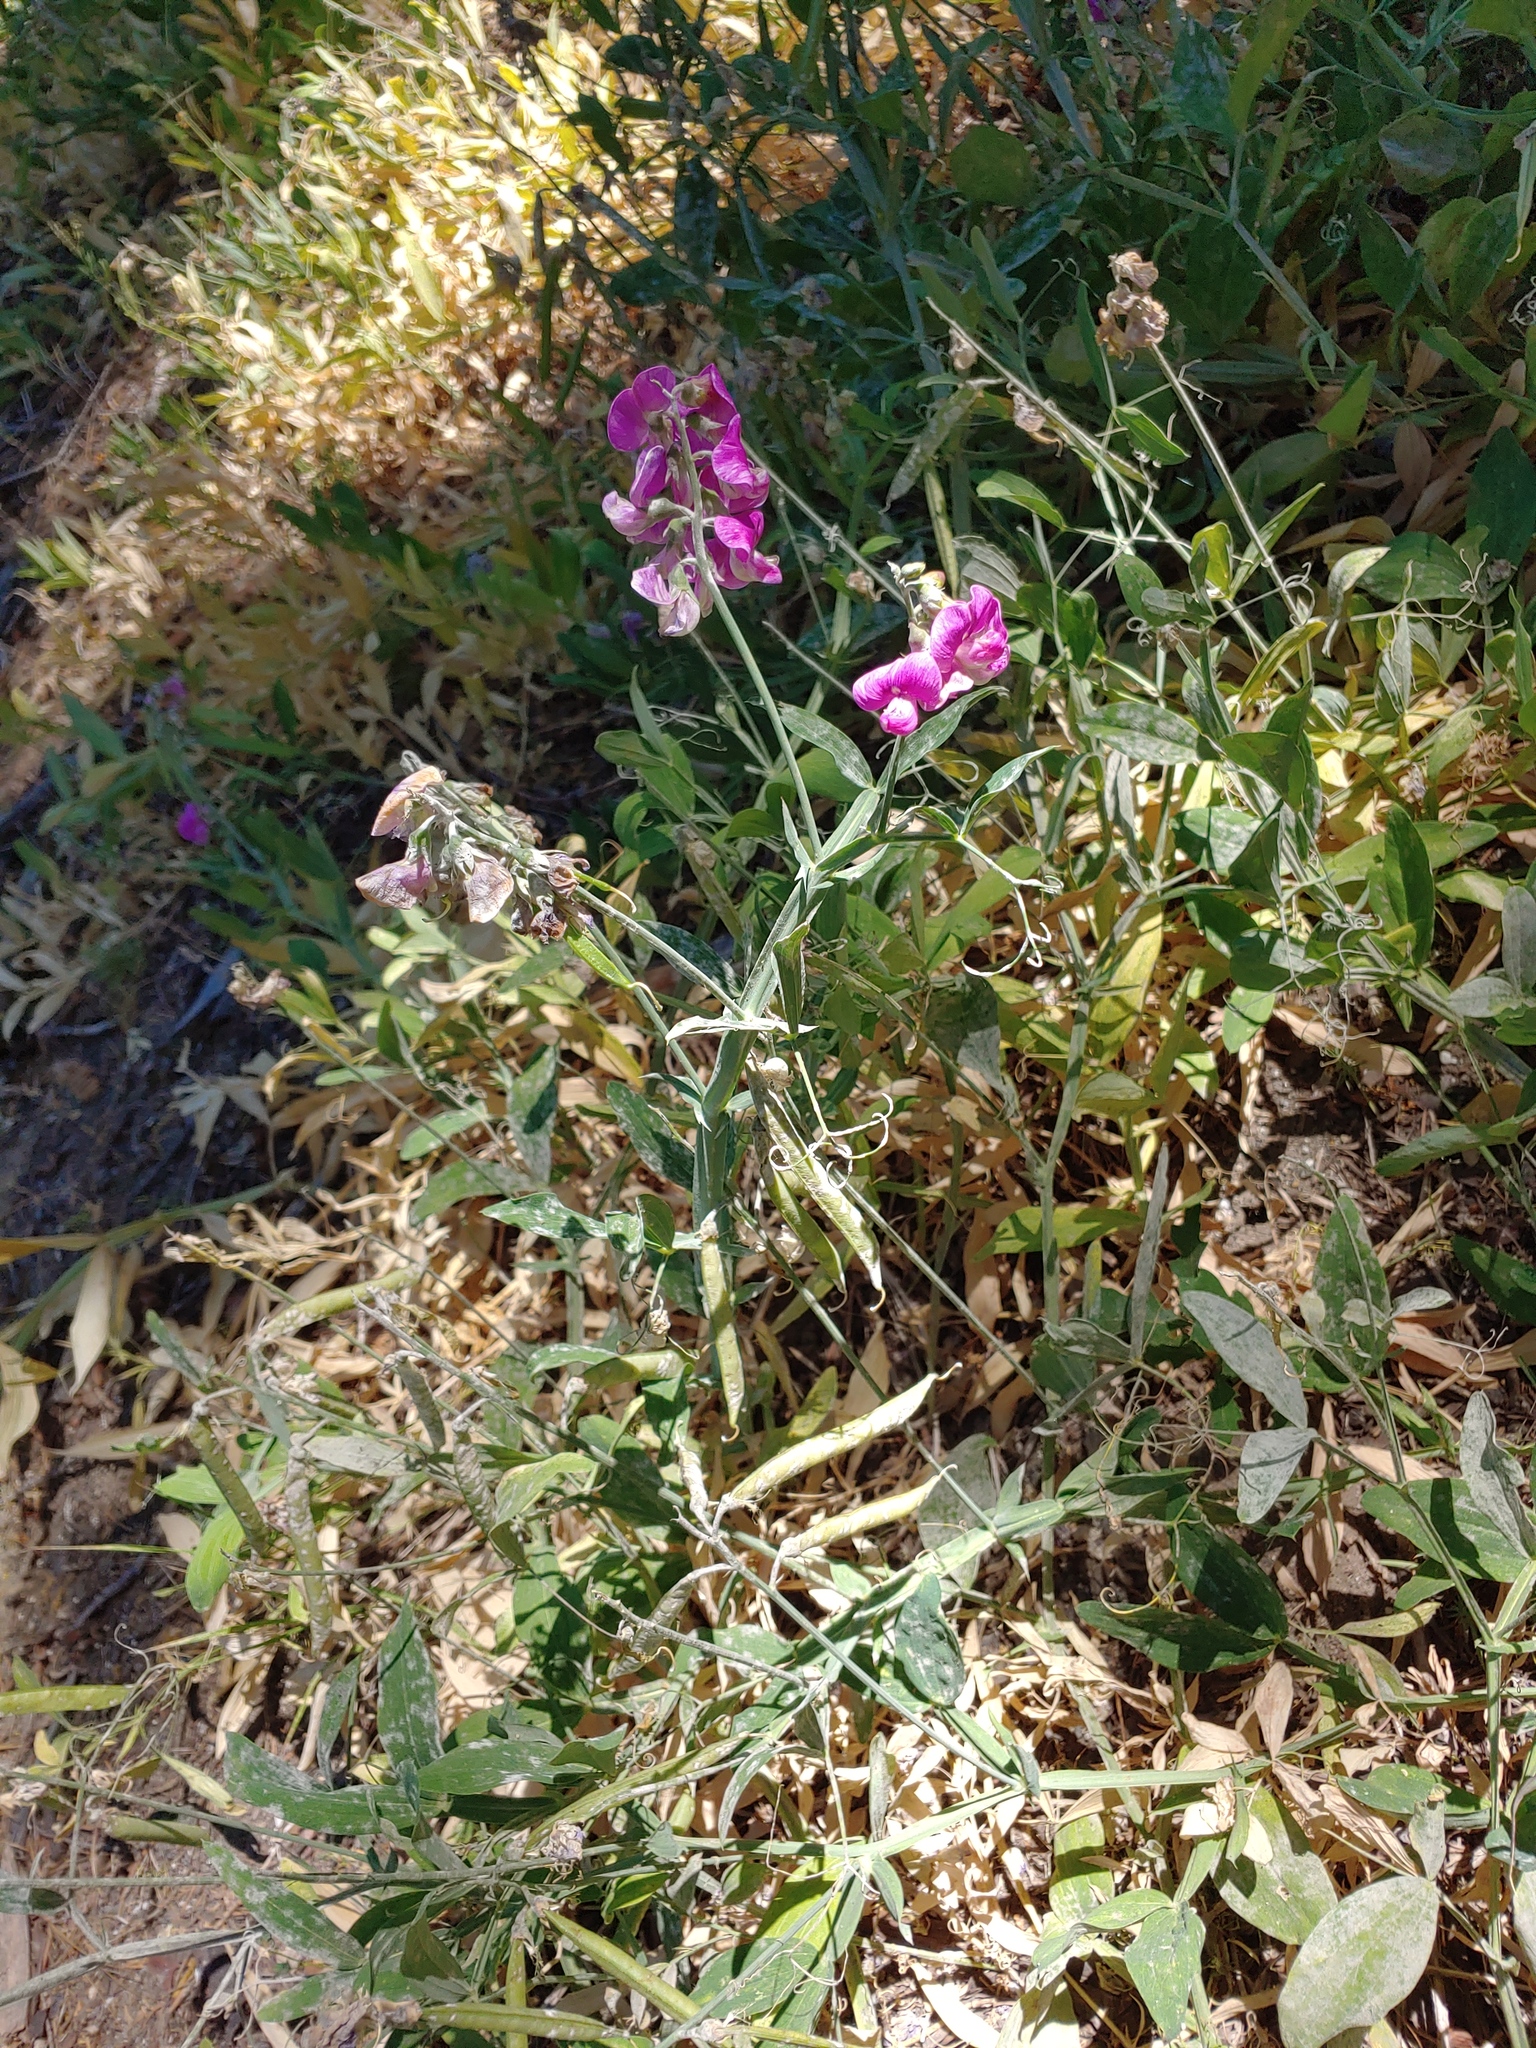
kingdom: Plantae
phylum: Tracheophyta
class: Magnoliopsida
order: Fabales
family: Fabaceae
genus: Lathyrus
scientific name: Lathyrus latifolius
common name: Perennial pea
